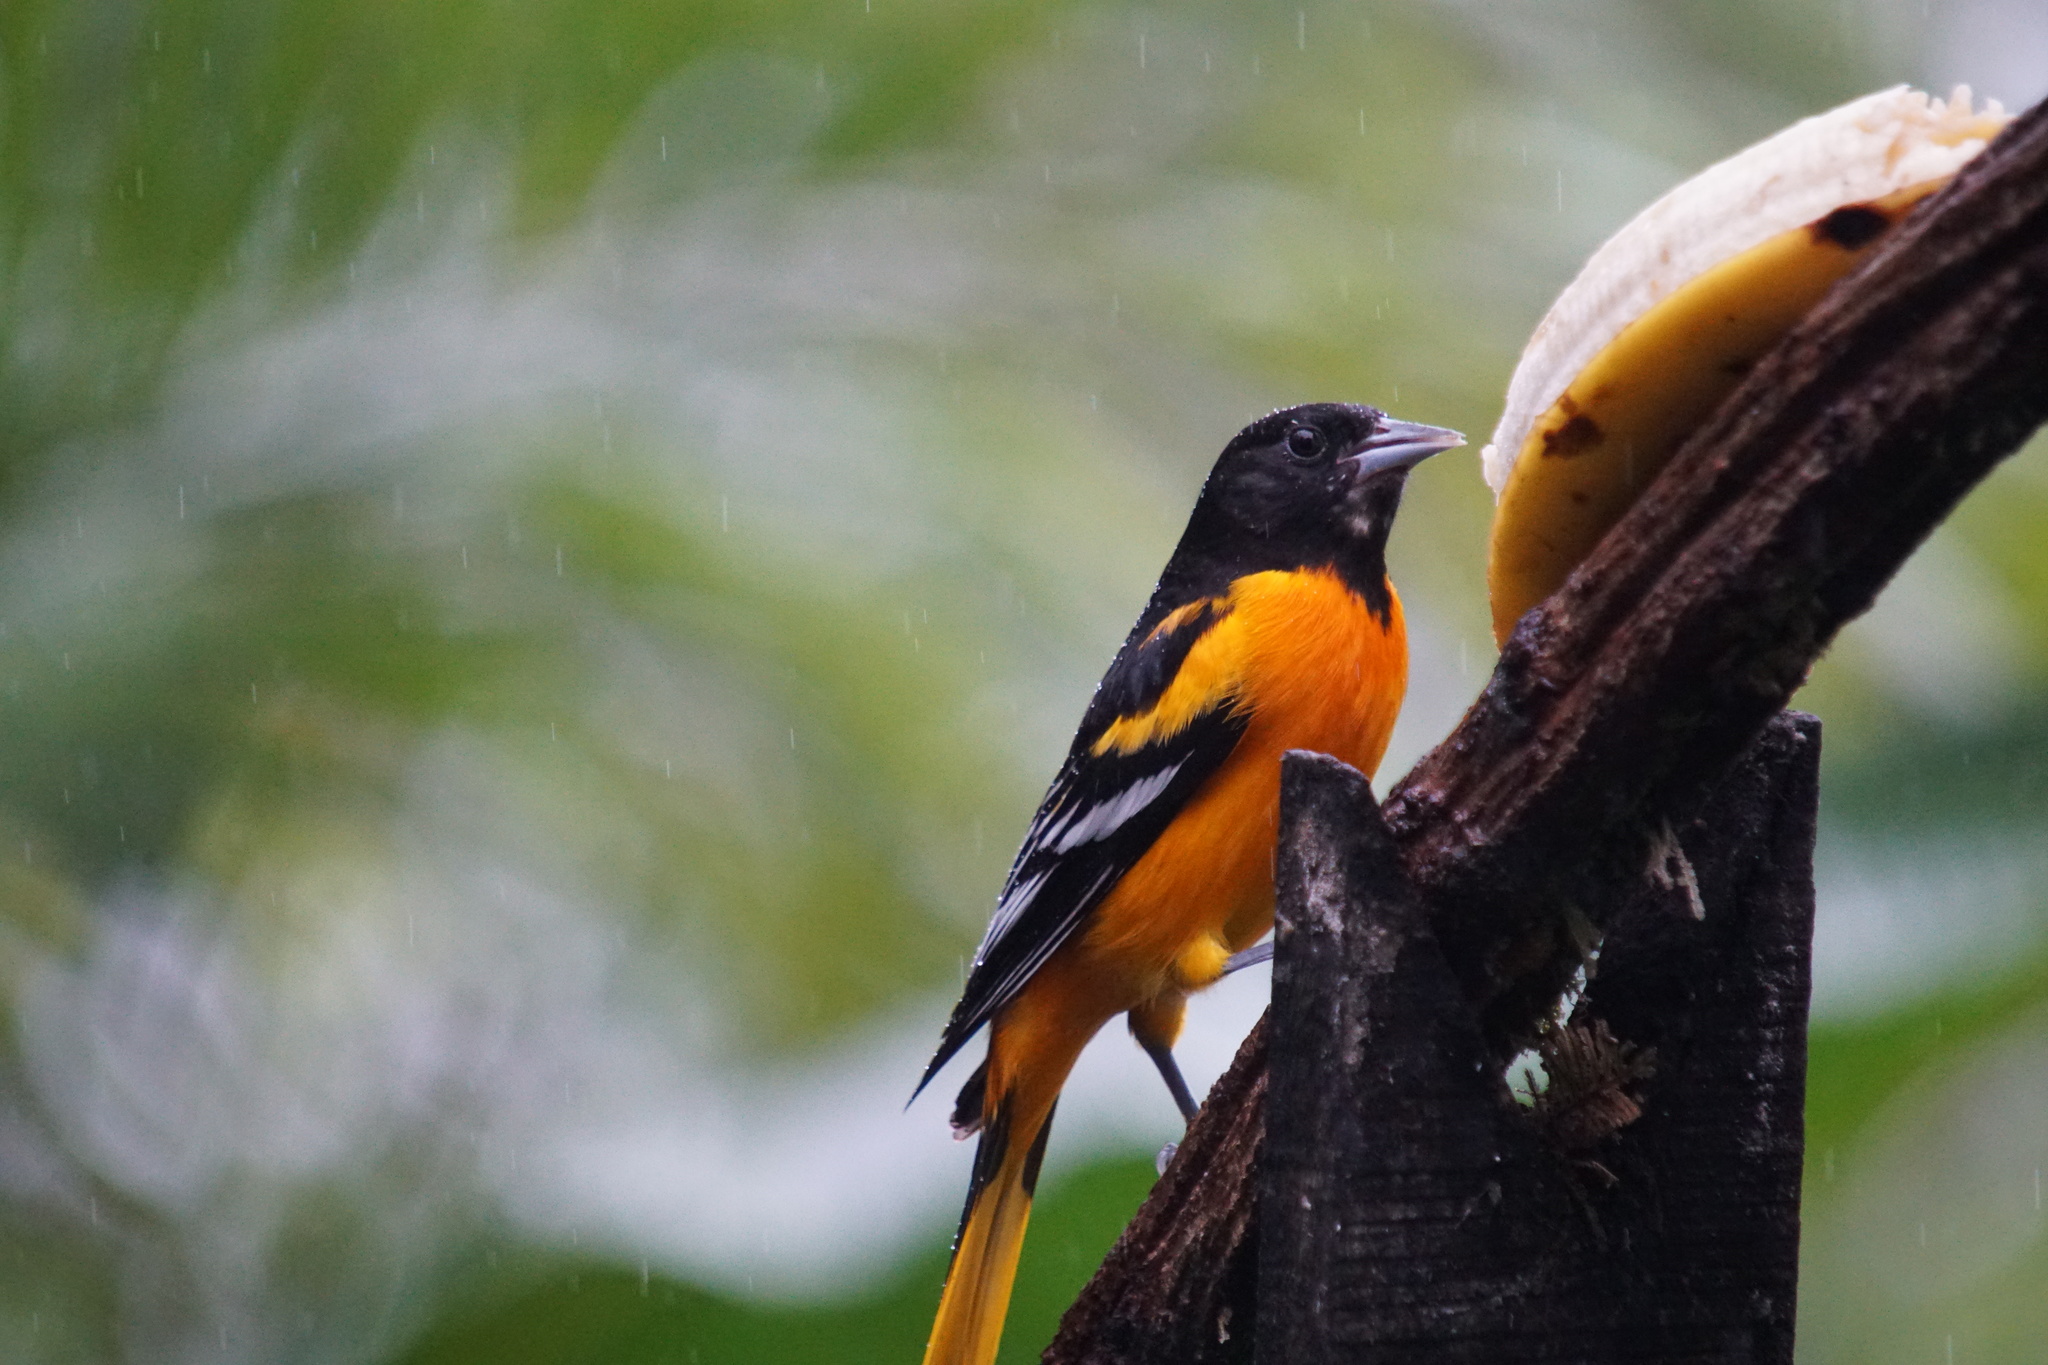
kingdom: Animalia
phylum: Chordata
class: Aves
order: Passeriformes
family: Icteridae
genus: Icterus
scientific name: Icterus galbula
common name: Baltimore oriole
